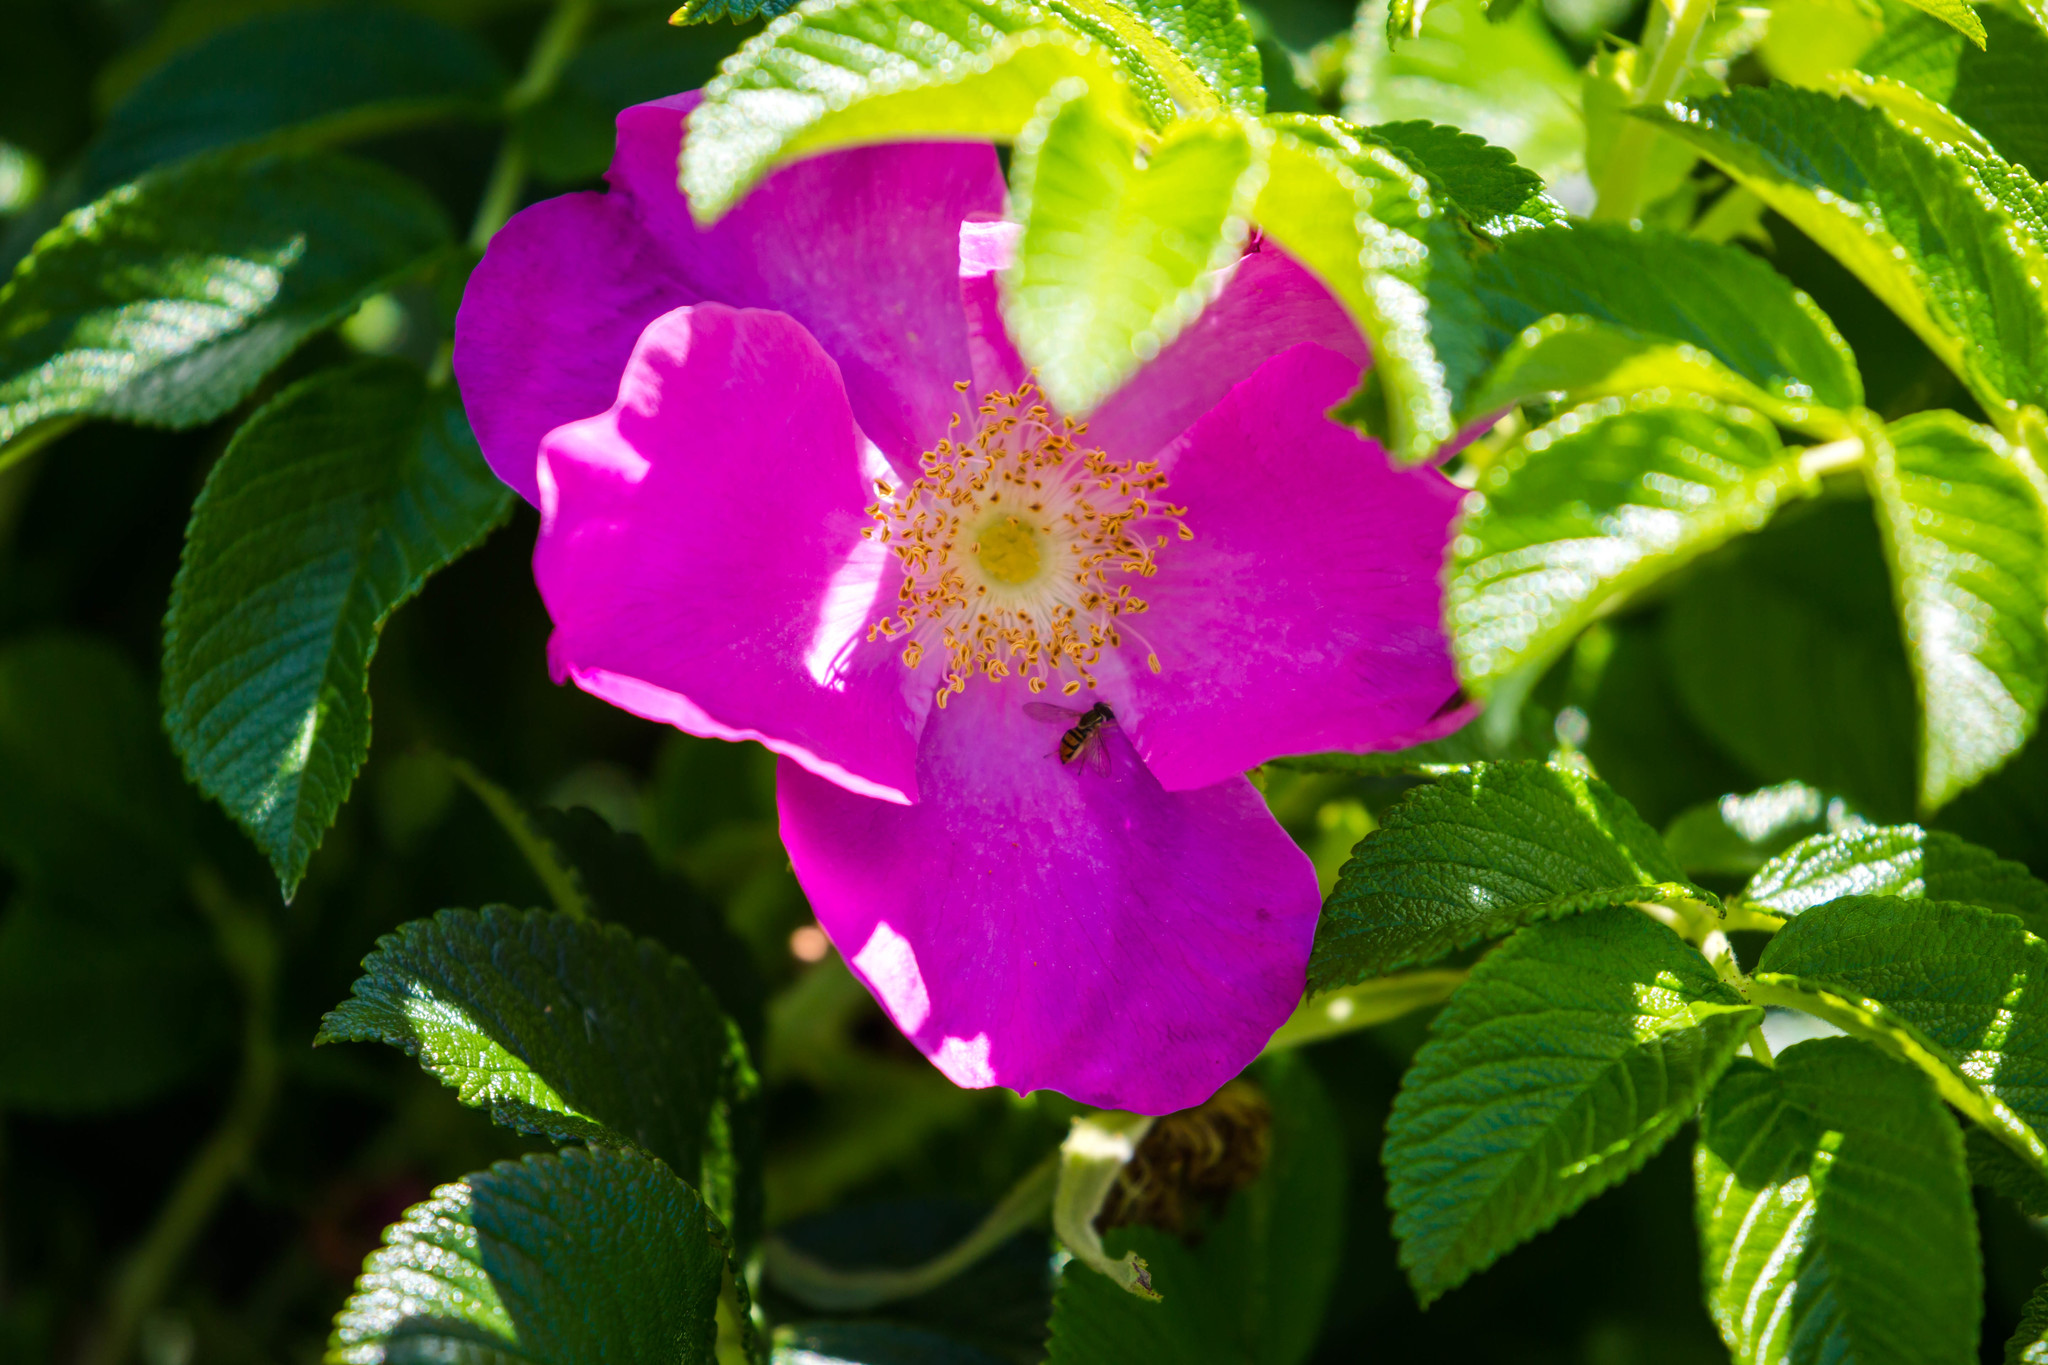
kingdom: Plantae
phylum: Tracheophyta
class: Magnoliopsida
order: Rosales
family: Rosaceae
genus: Rosa
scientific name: Rosa rugosa
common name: Japanese rose
